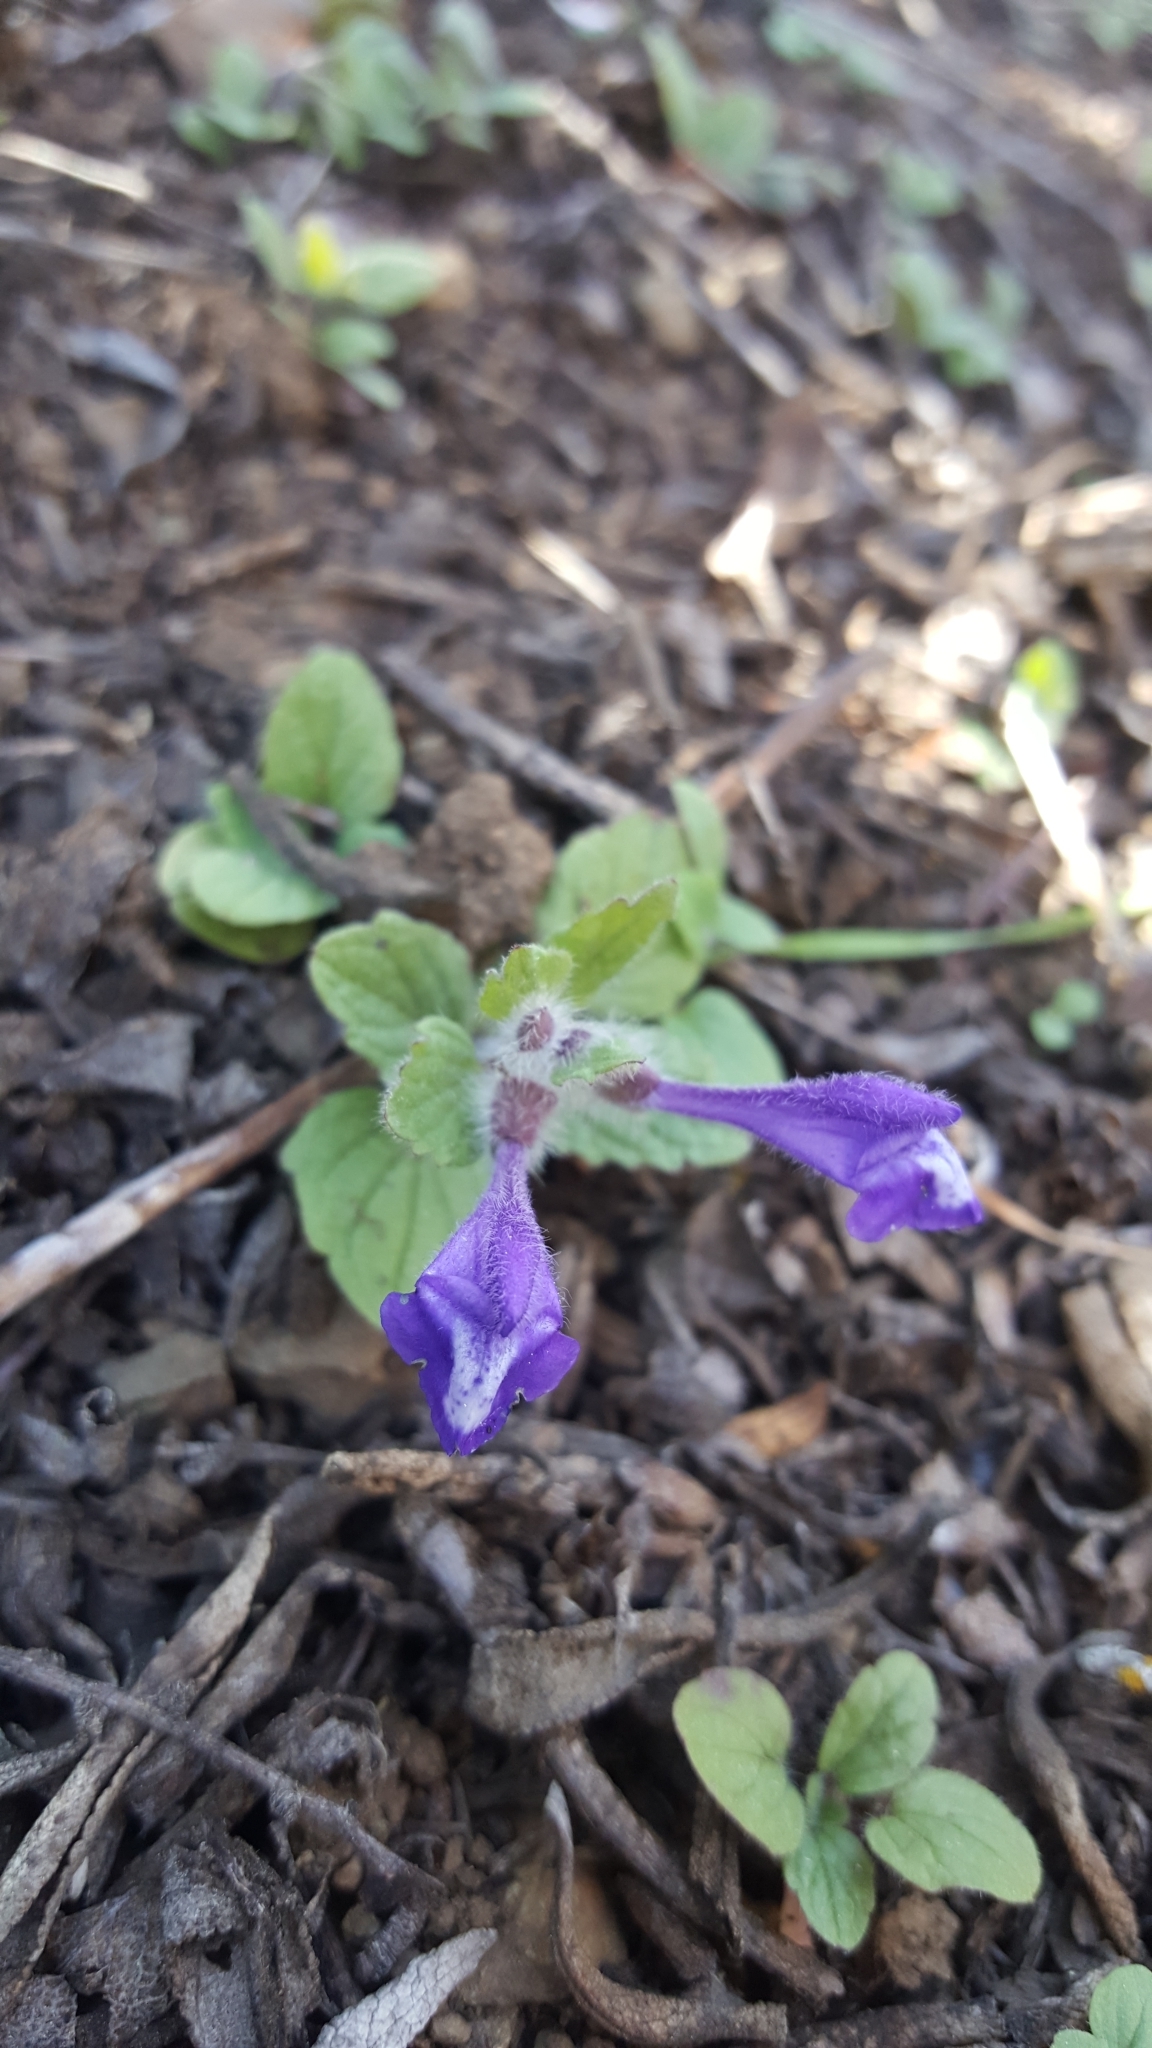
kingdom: Plantae
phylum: Tracheophyta
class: Magnoliopsida
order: Lamiales
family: Lamiaceae
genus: Scutellaria
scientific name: Scutellaria tuberosa
